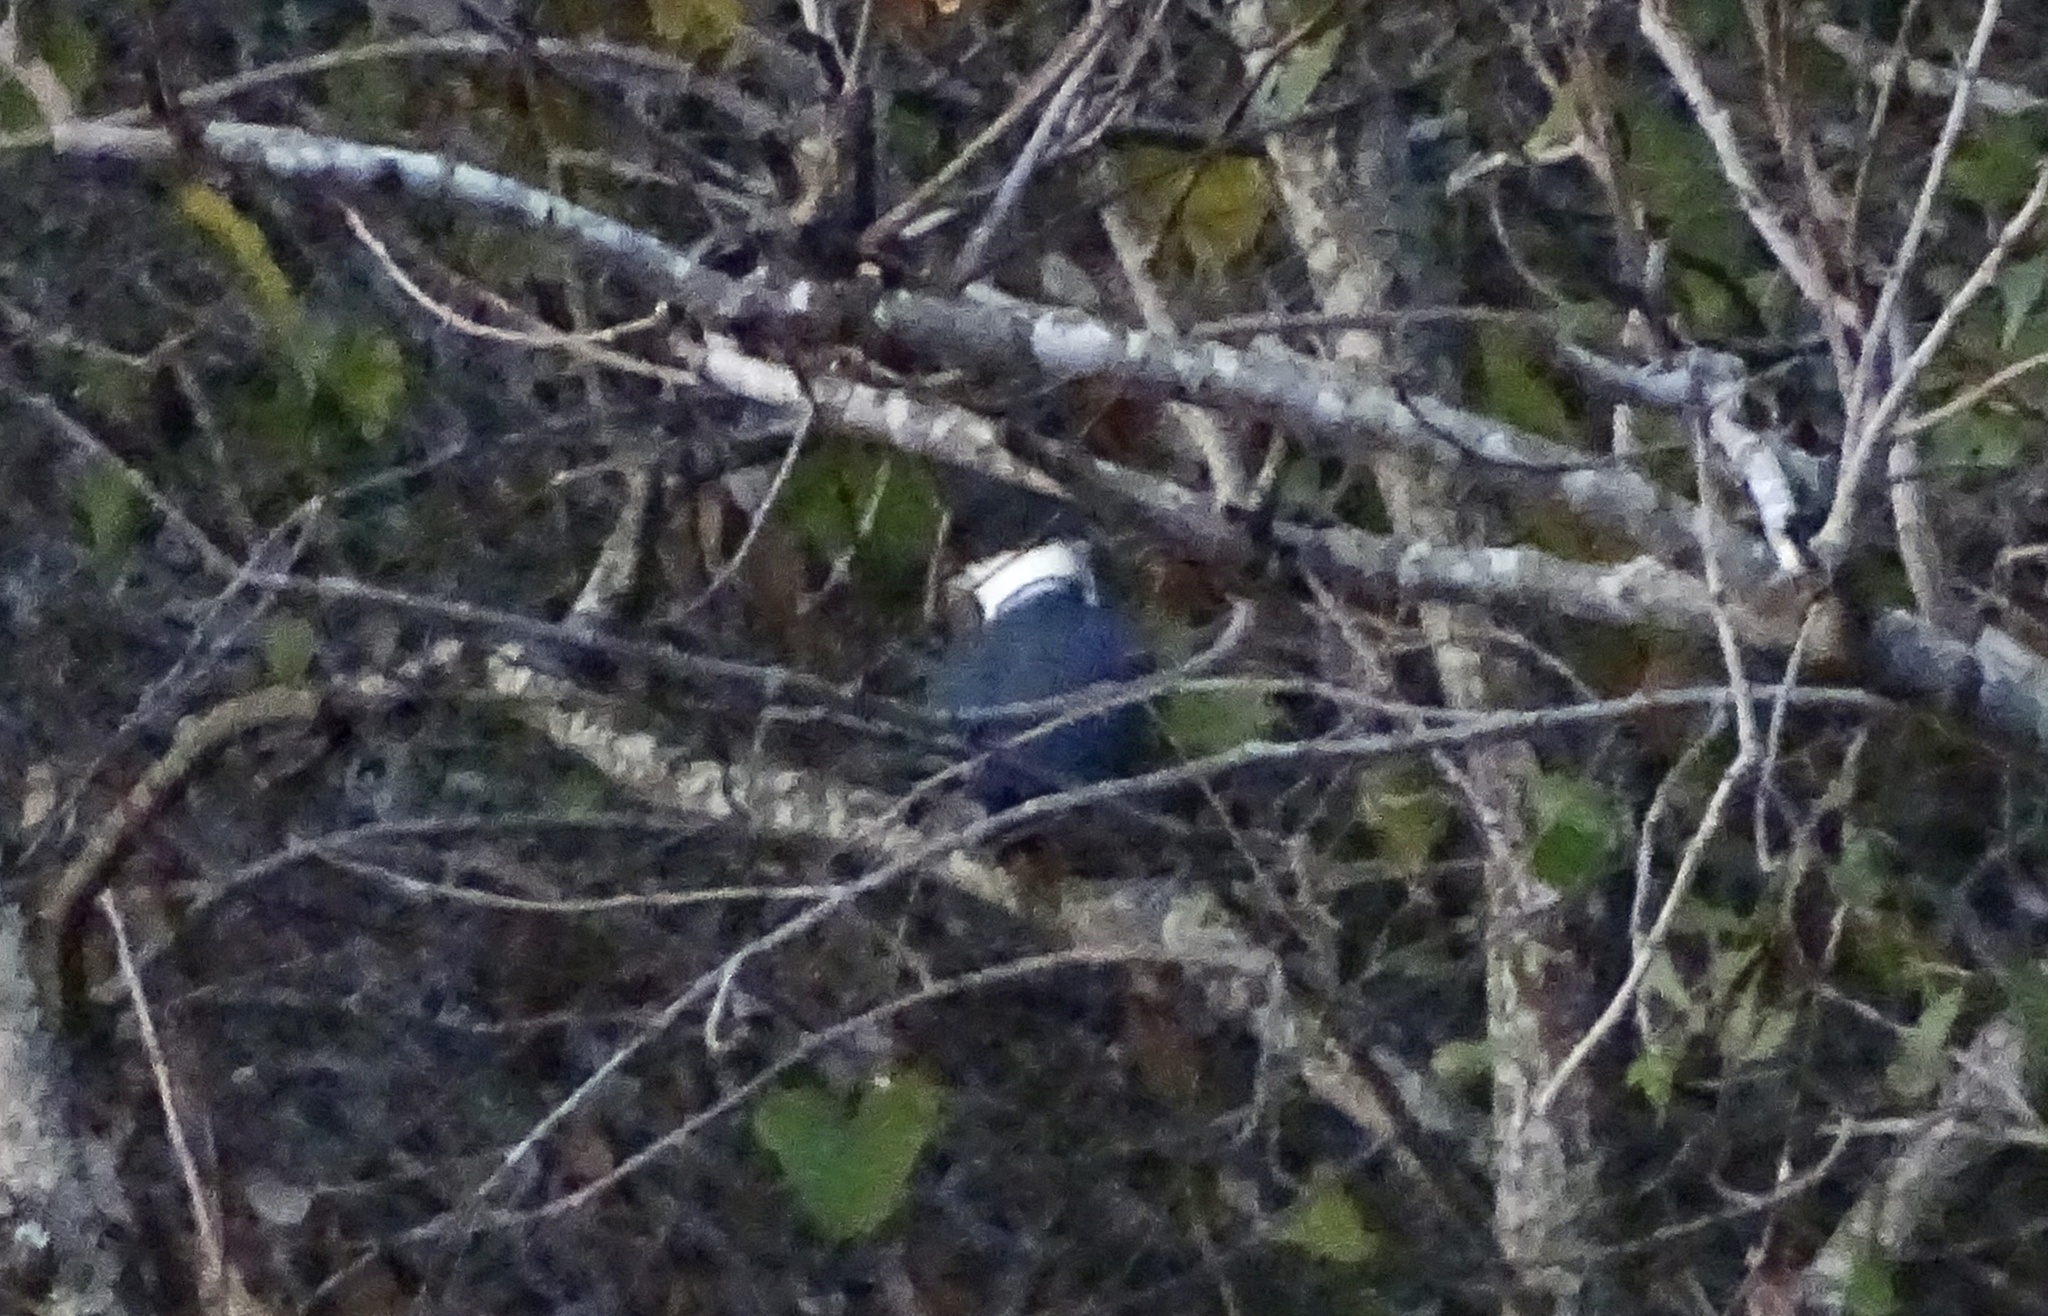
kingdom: Animalia
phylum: Chordata
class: Aves
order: Coraciiformes
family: Alcedinidae
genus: Megaceryle
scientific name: Megaceryle alcyon
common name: Belted kingfisher
